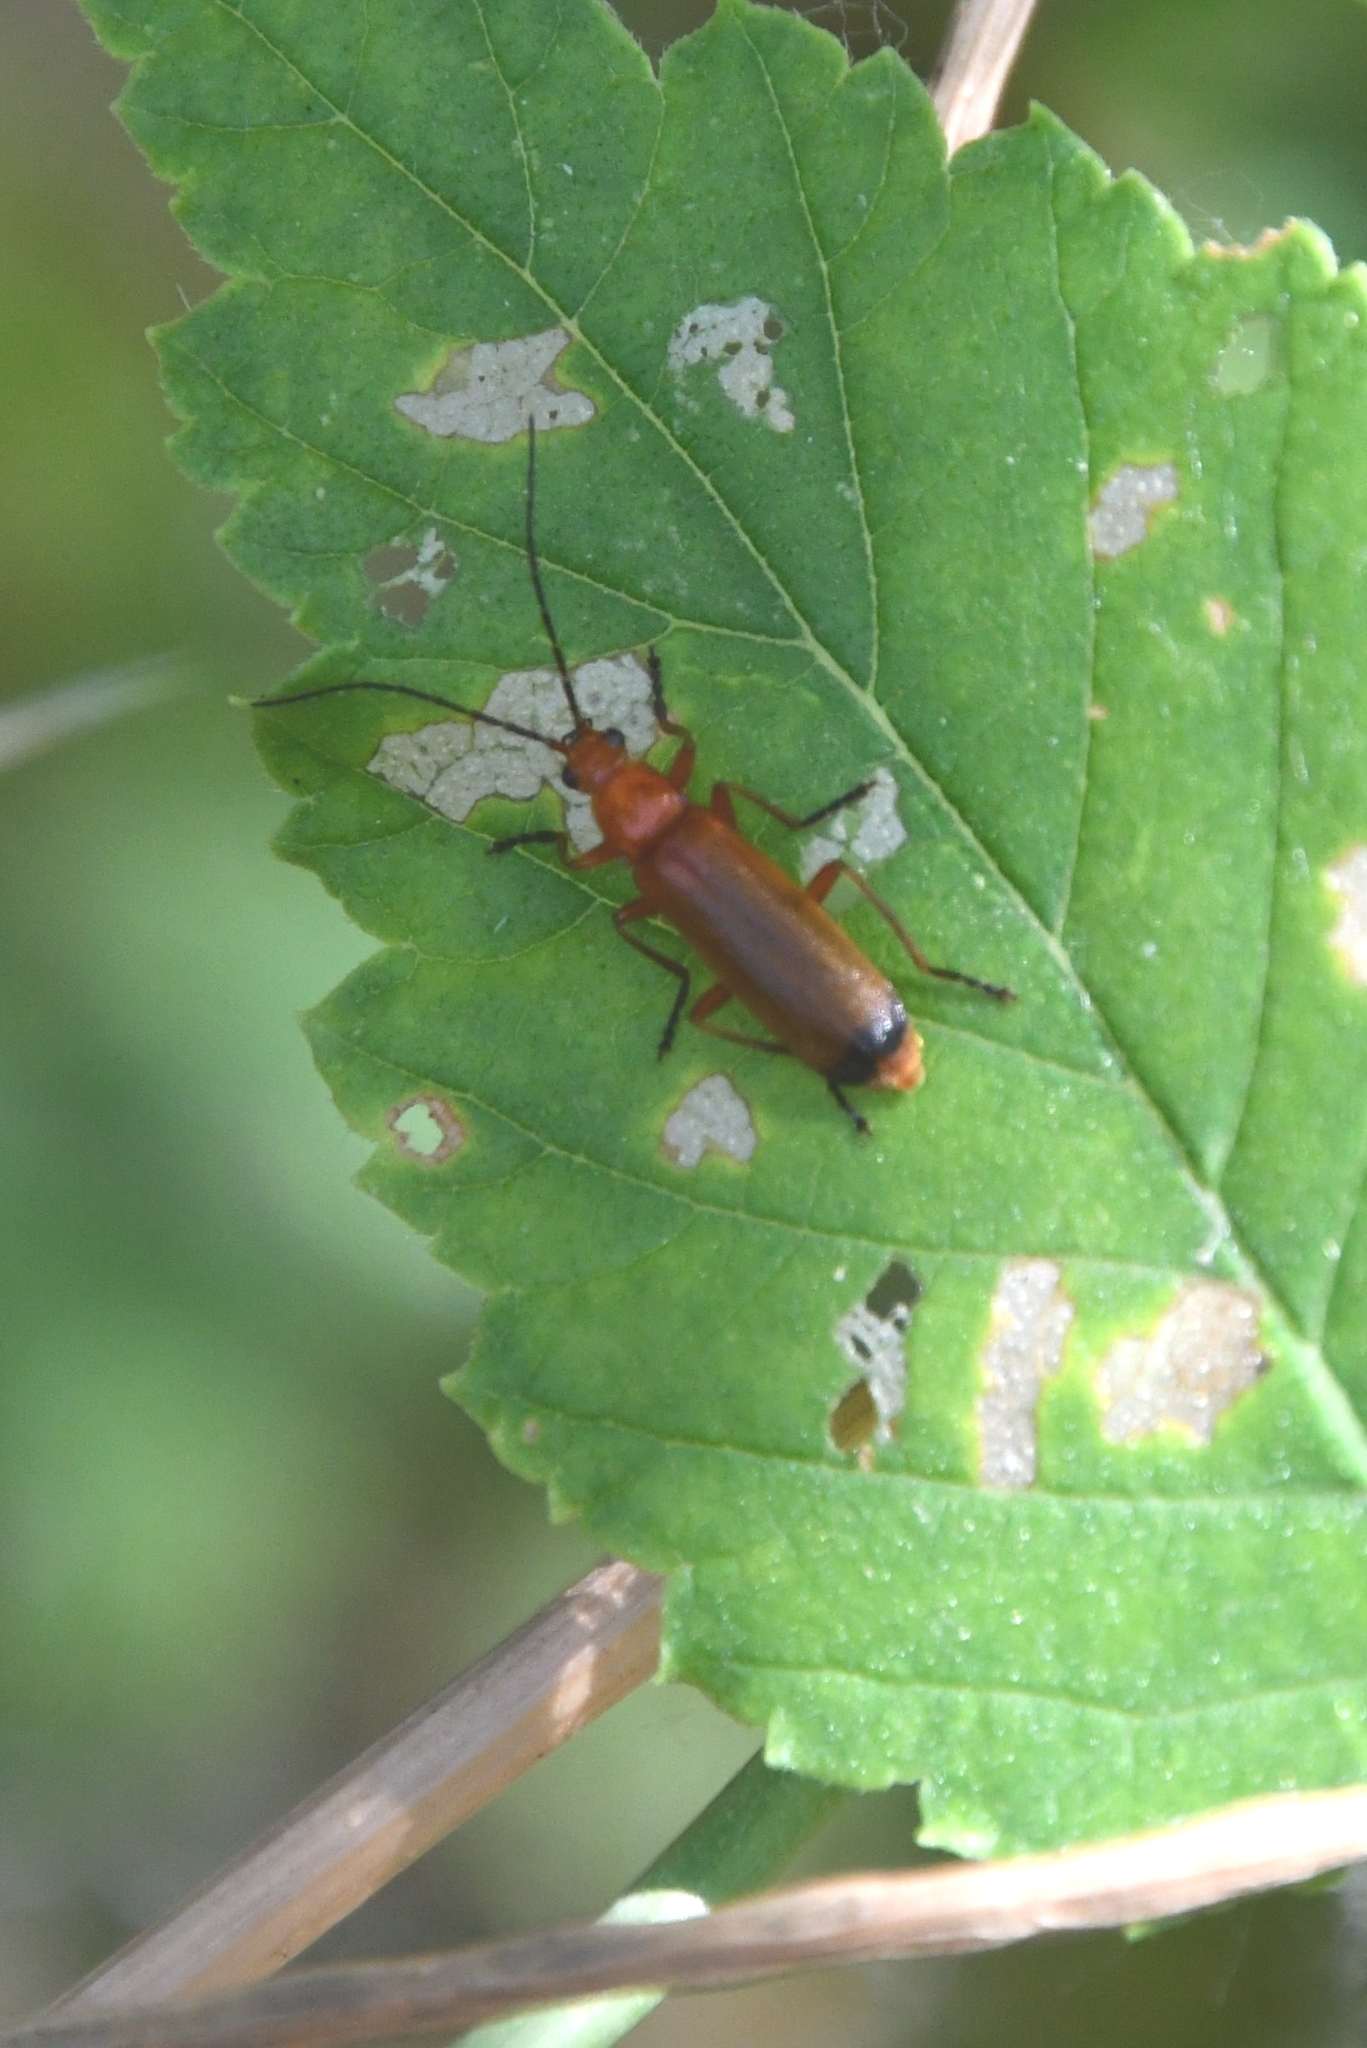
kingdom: Animalia
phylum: Arthropoda
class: Insecta
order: Coleoptera
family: Cantharidae
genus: Rhagonycha
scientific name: Rhagonycha fulva
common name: Common red soldier beetle
